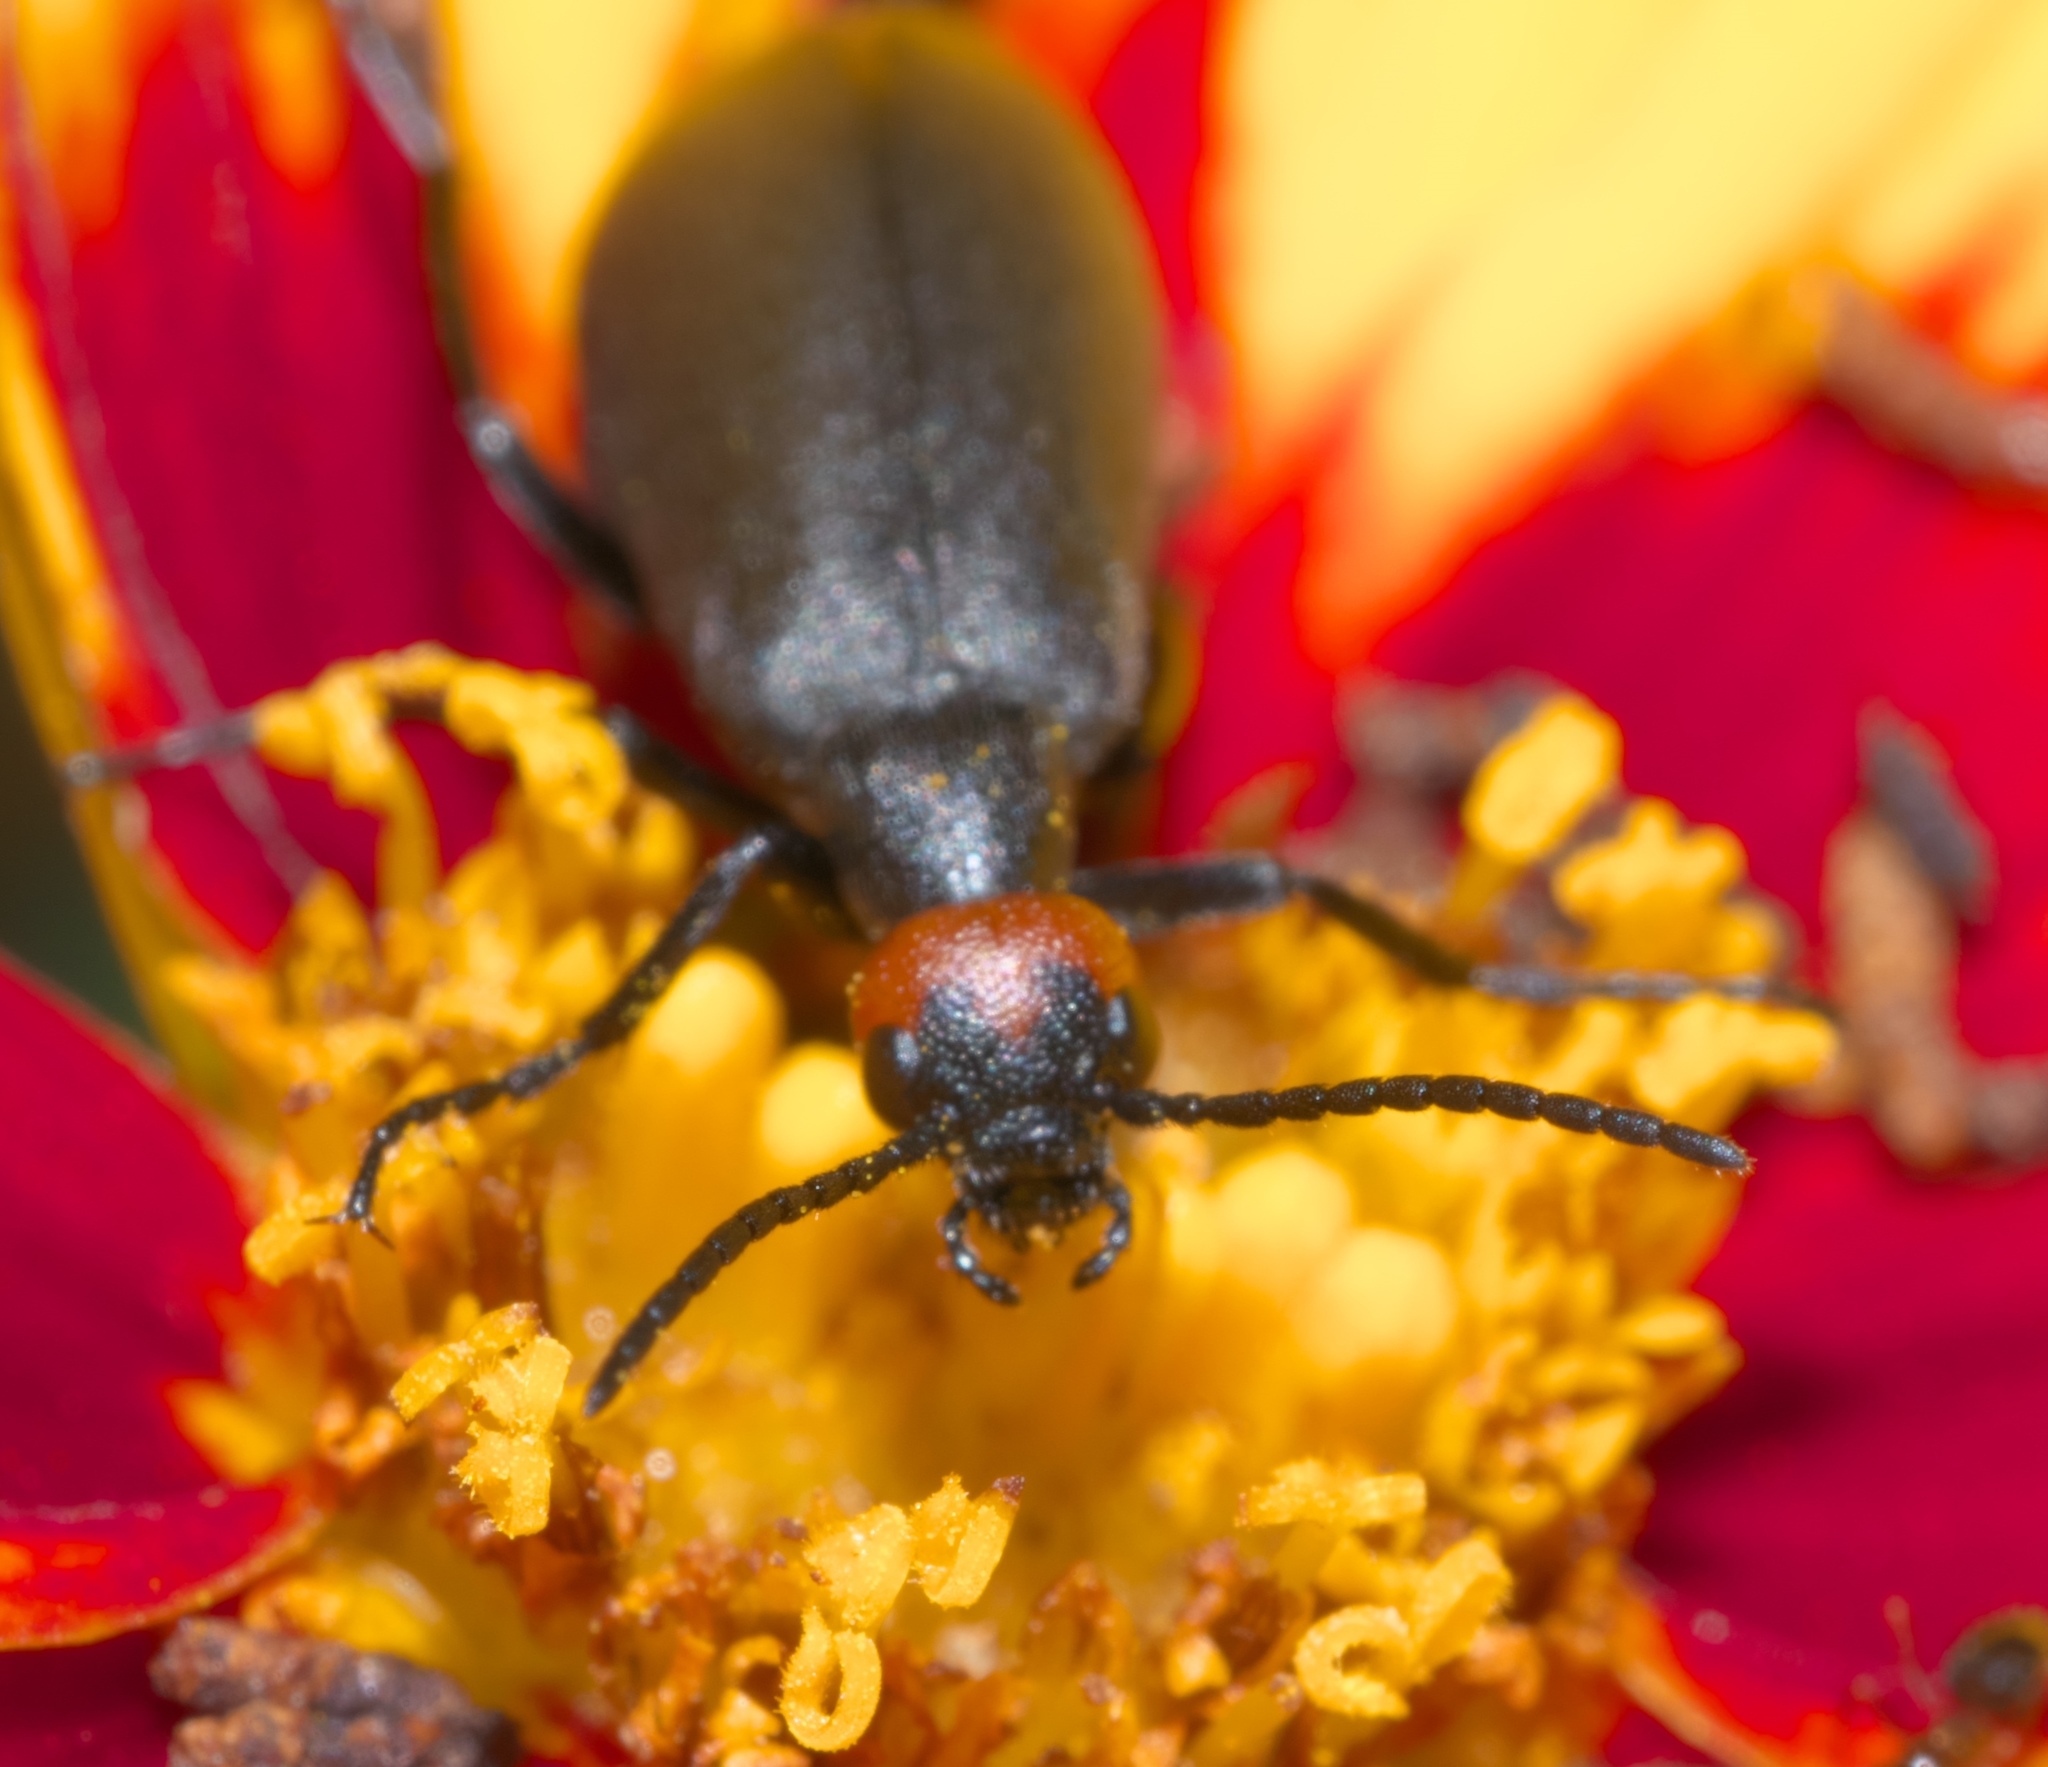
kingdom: Animalia
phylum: Arthropoda
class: Insecta
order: Coleoptera
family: Meloidae
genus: Epicauta
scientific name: Epicauta atrata
